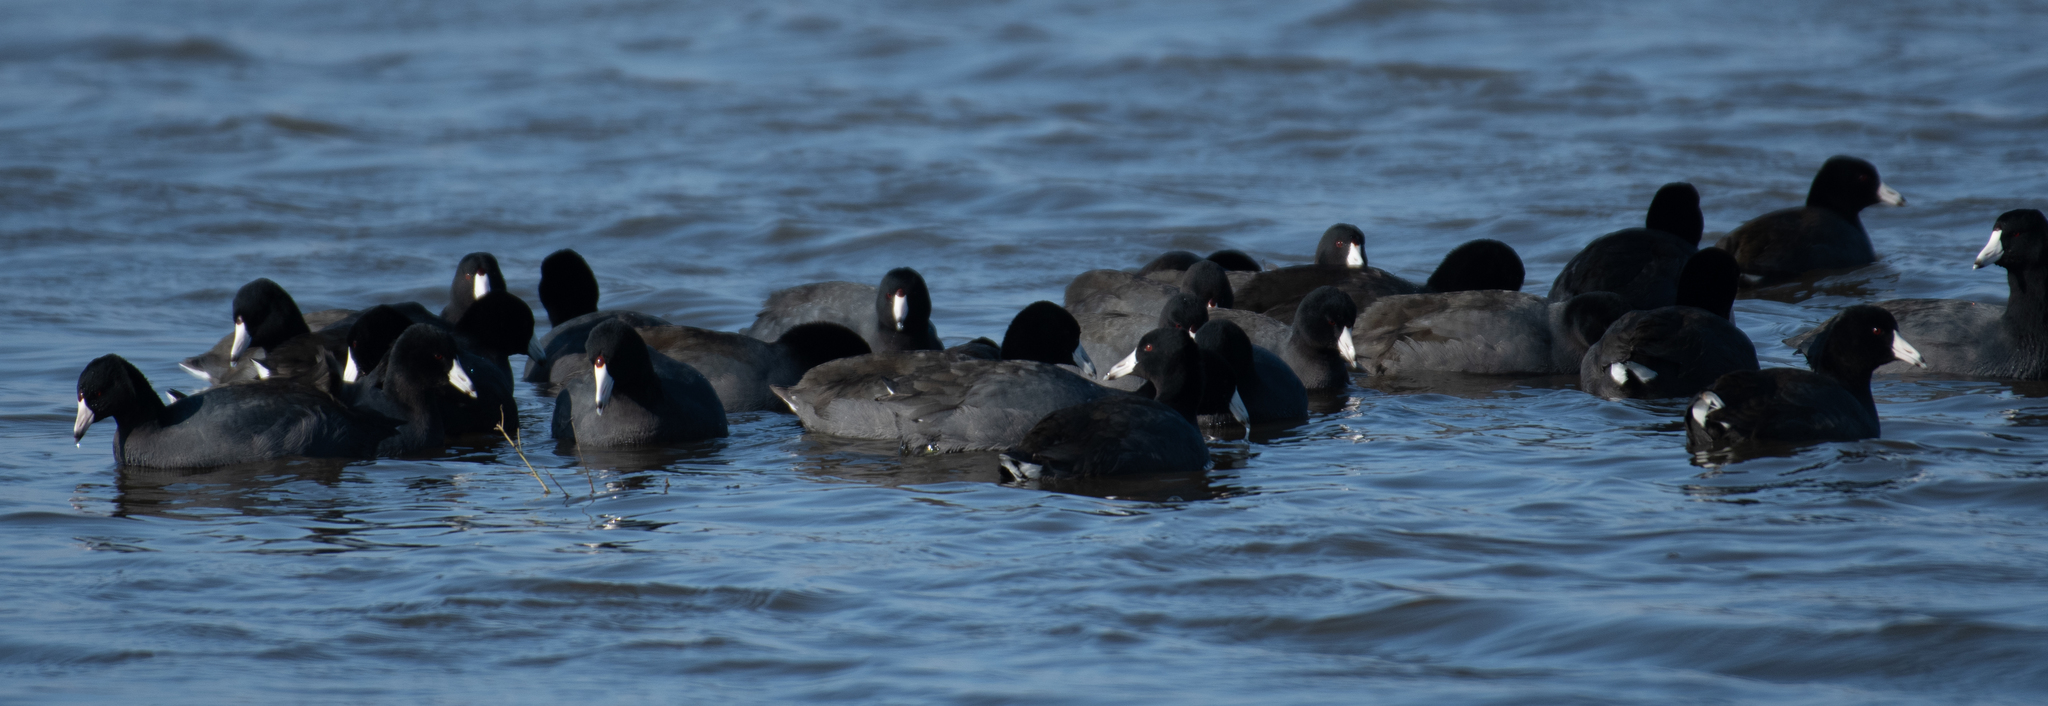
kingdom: Animalia
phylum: Chordata
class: Aves
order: Gruiformes
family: Rallidae
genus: Fulica
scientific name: Fulica americana
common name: American coot
